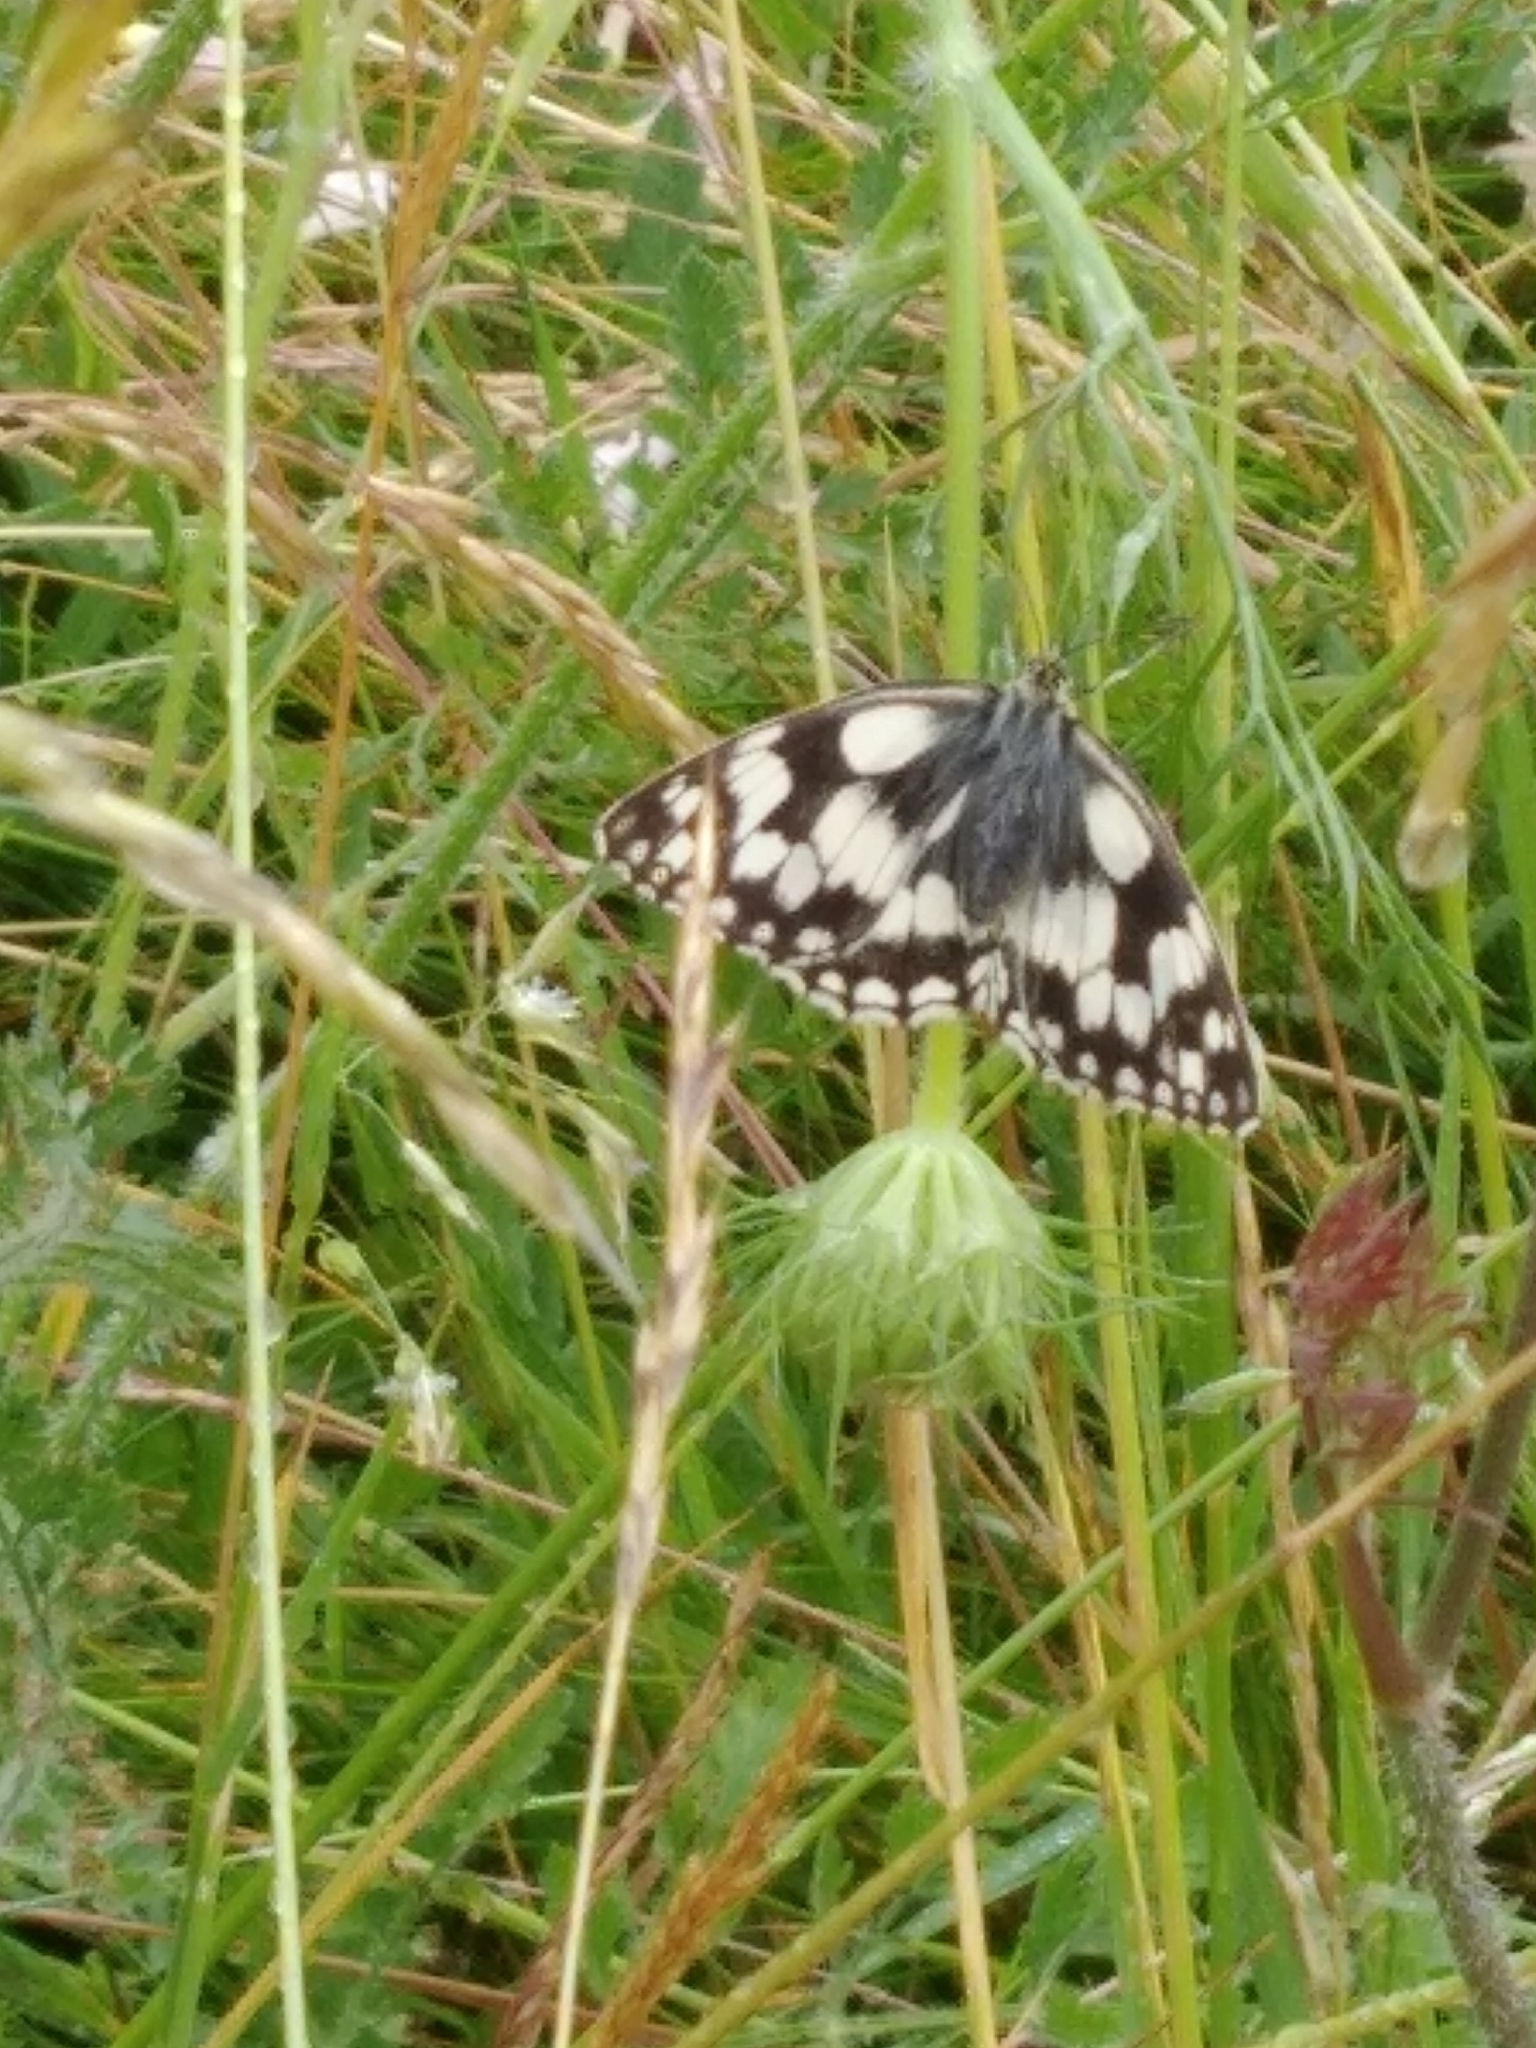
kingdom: Animalia
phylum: Arthropoda
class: Insecta
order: Lepidoptera
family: Nymphalidae
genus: Melanargia
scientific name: Melanargia galathea
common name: Marbled white
